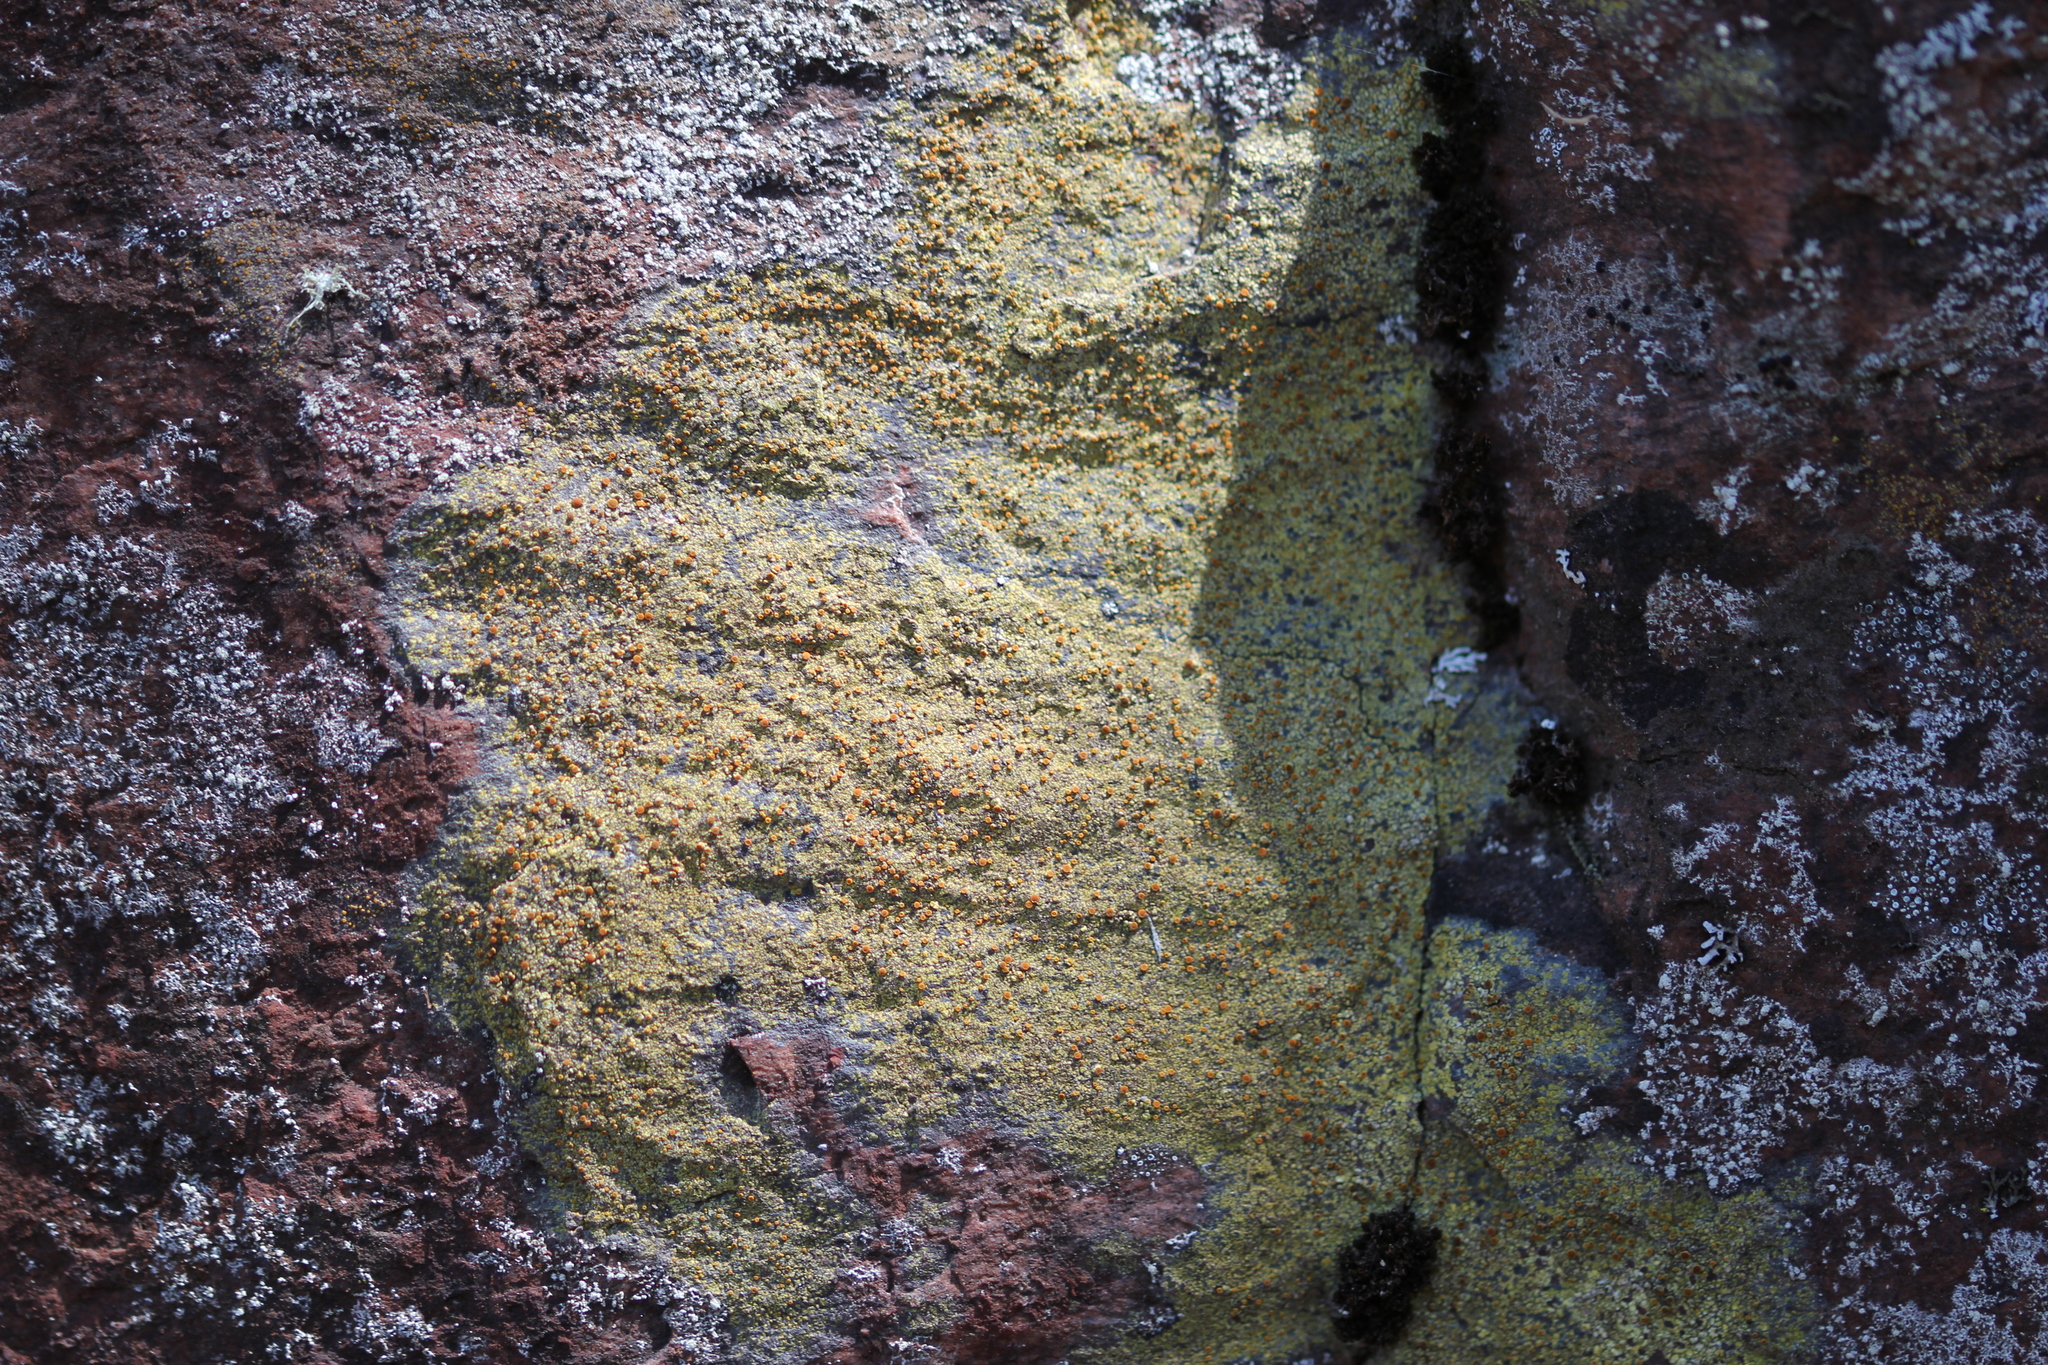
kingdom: Fungi
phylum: Ascomycota
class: Lecanoromycetes
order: Teloschistales
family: Teloschistaceae
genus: Gyalolechia
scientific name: Gyalolechia flavovirescens
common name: Sulphur firedot
